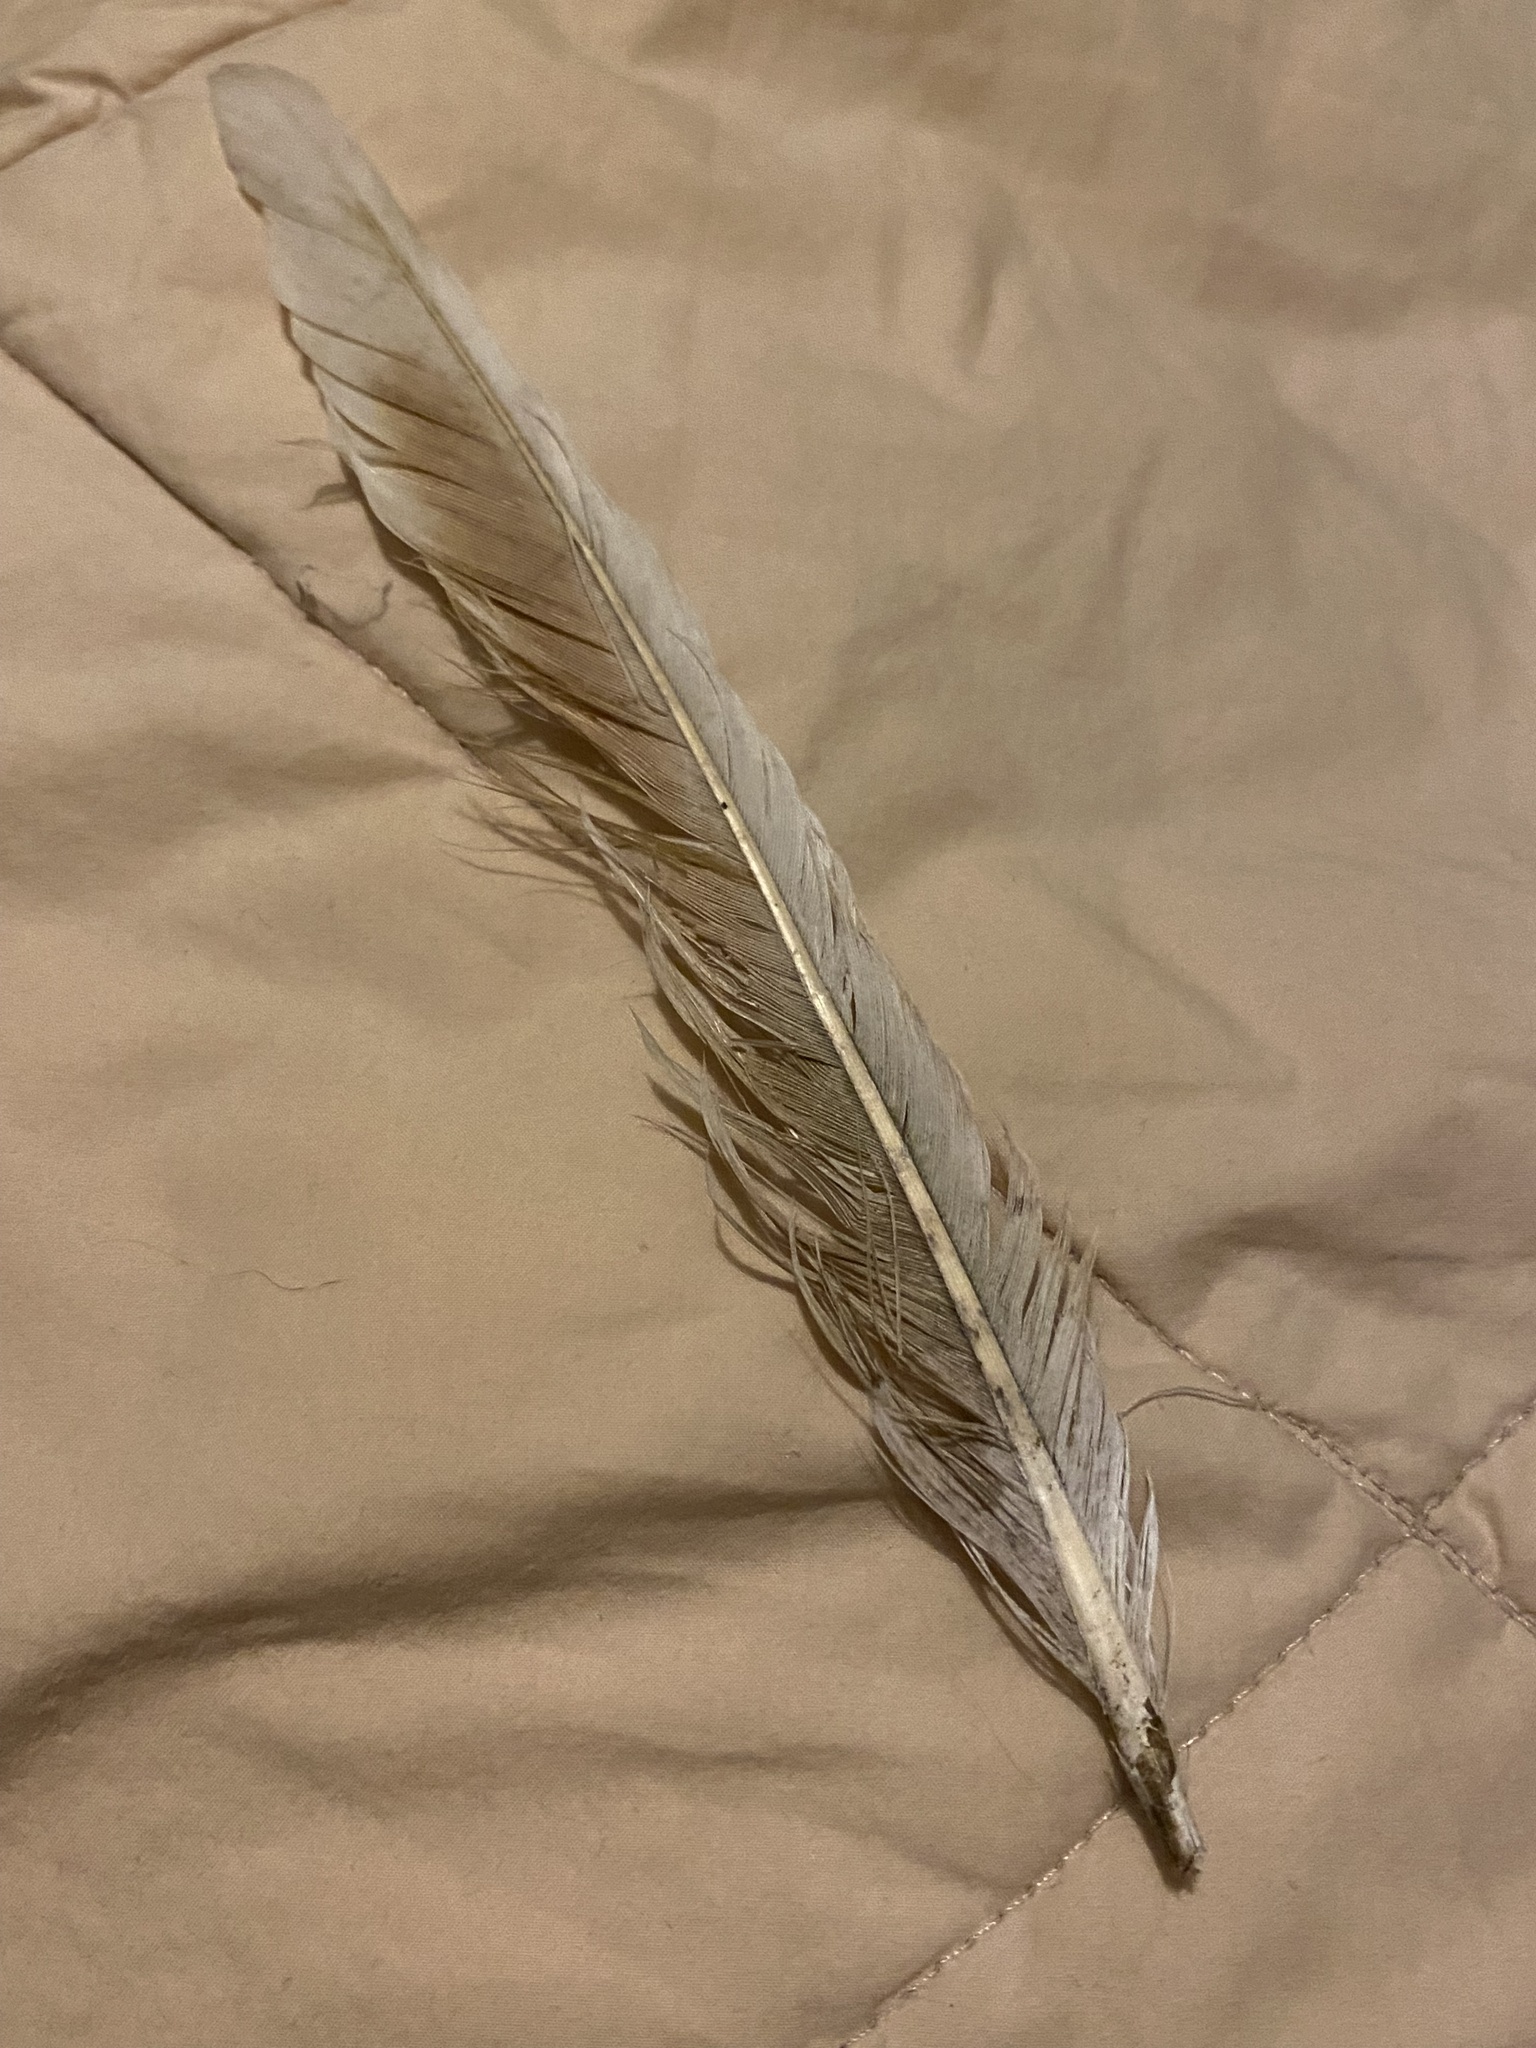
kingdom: Animalia
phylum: Chordata
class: Aves
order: Columbiformes
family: Columbidae
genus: Columba
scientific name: Columba livia
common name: Rock pigeon
